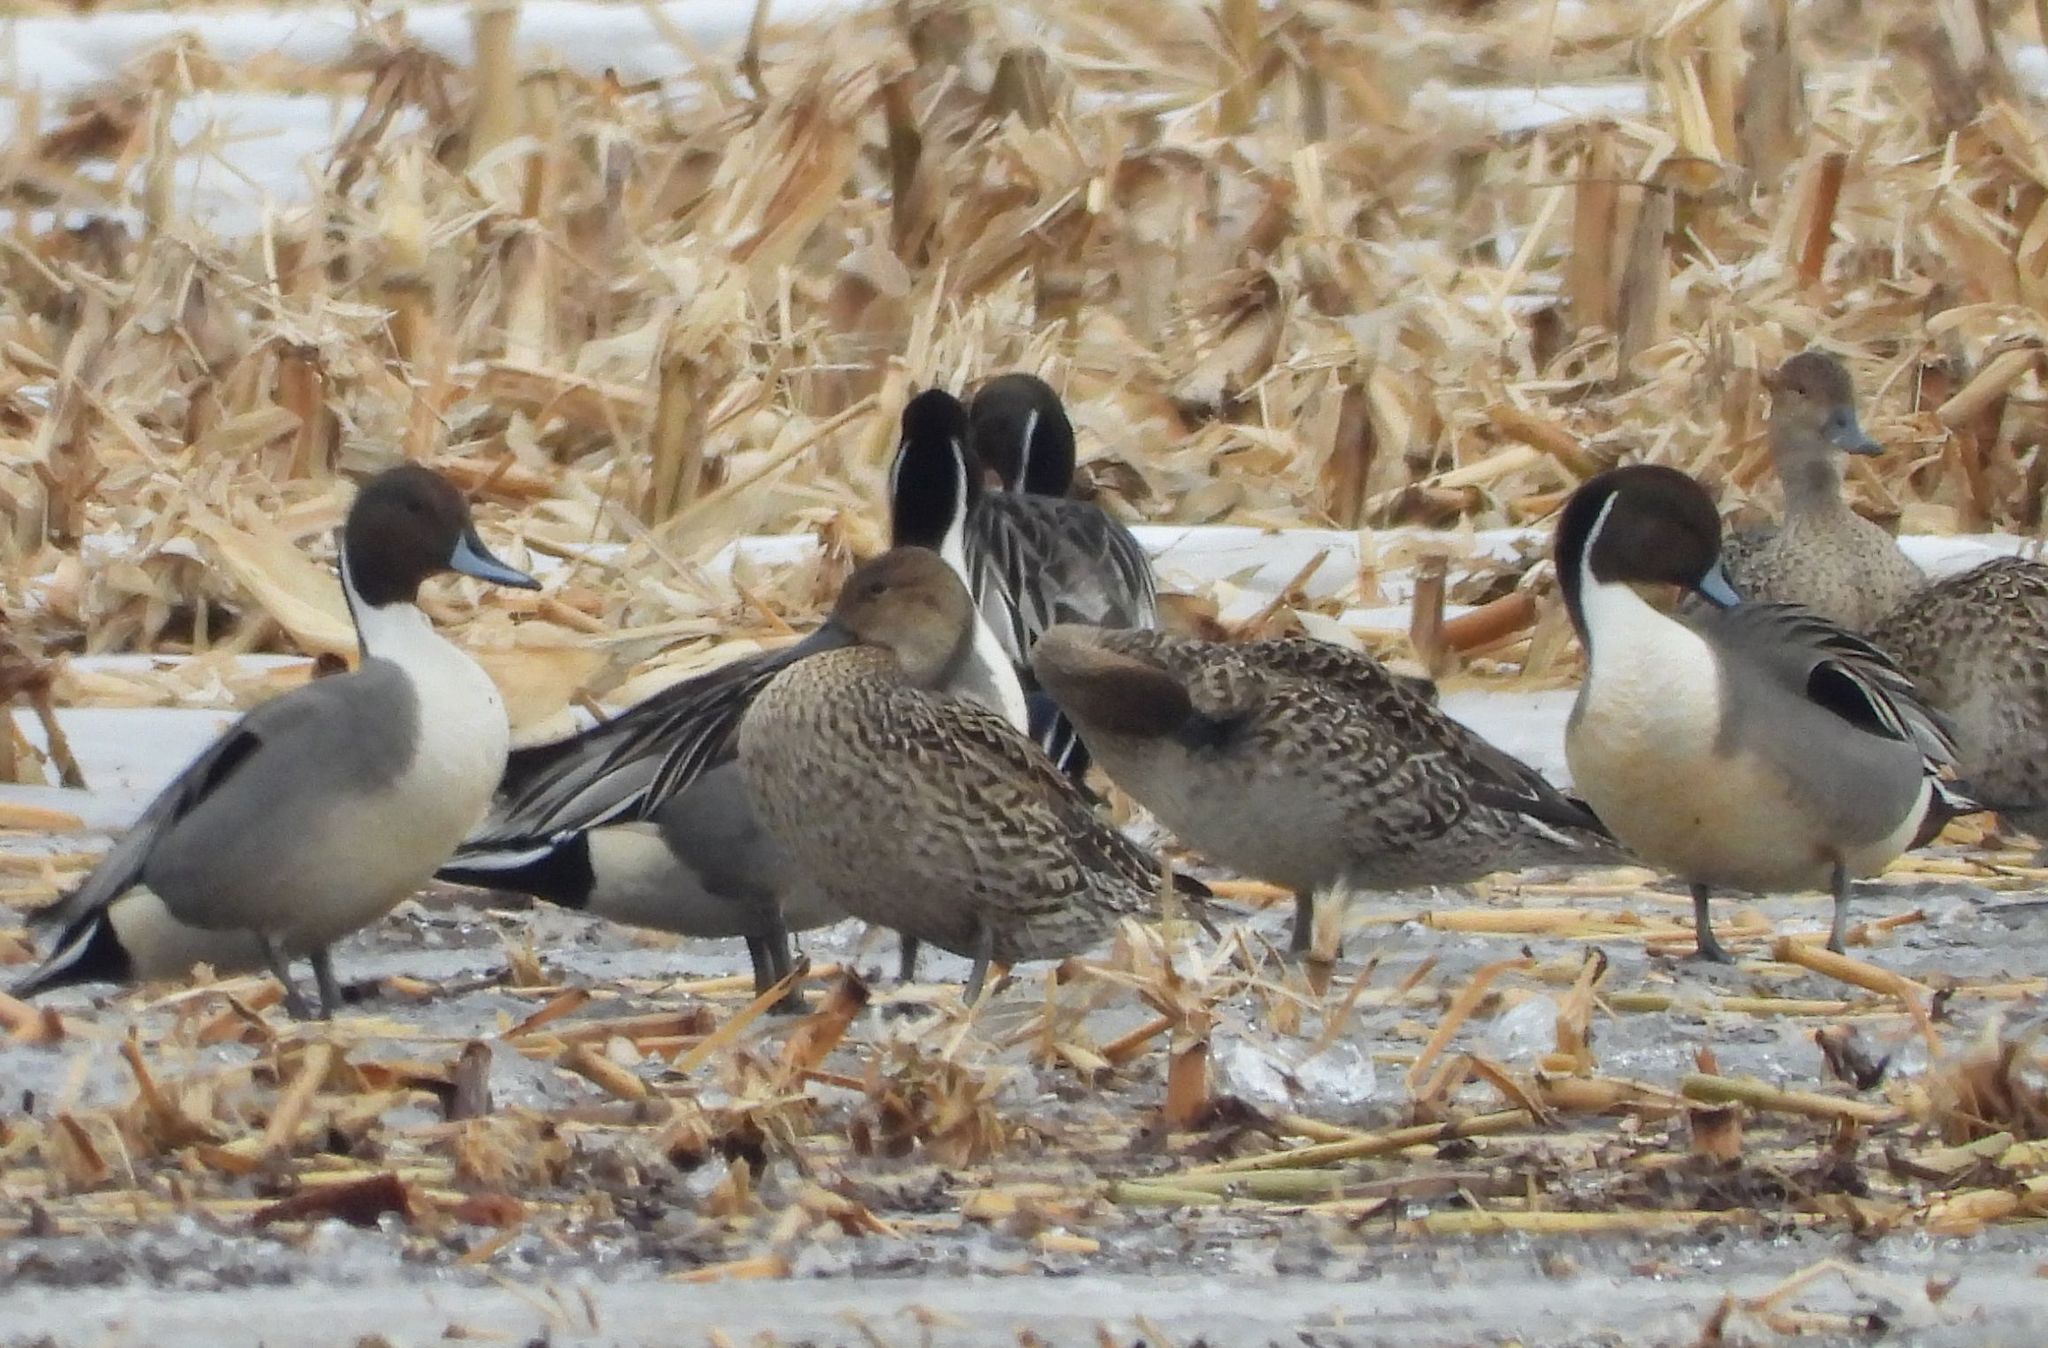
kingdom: Animalia
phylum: Chordata
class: Aves
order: Anseriformes
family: Anatidae
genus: Anas
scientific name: Anas acuta
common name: Northern pintail
